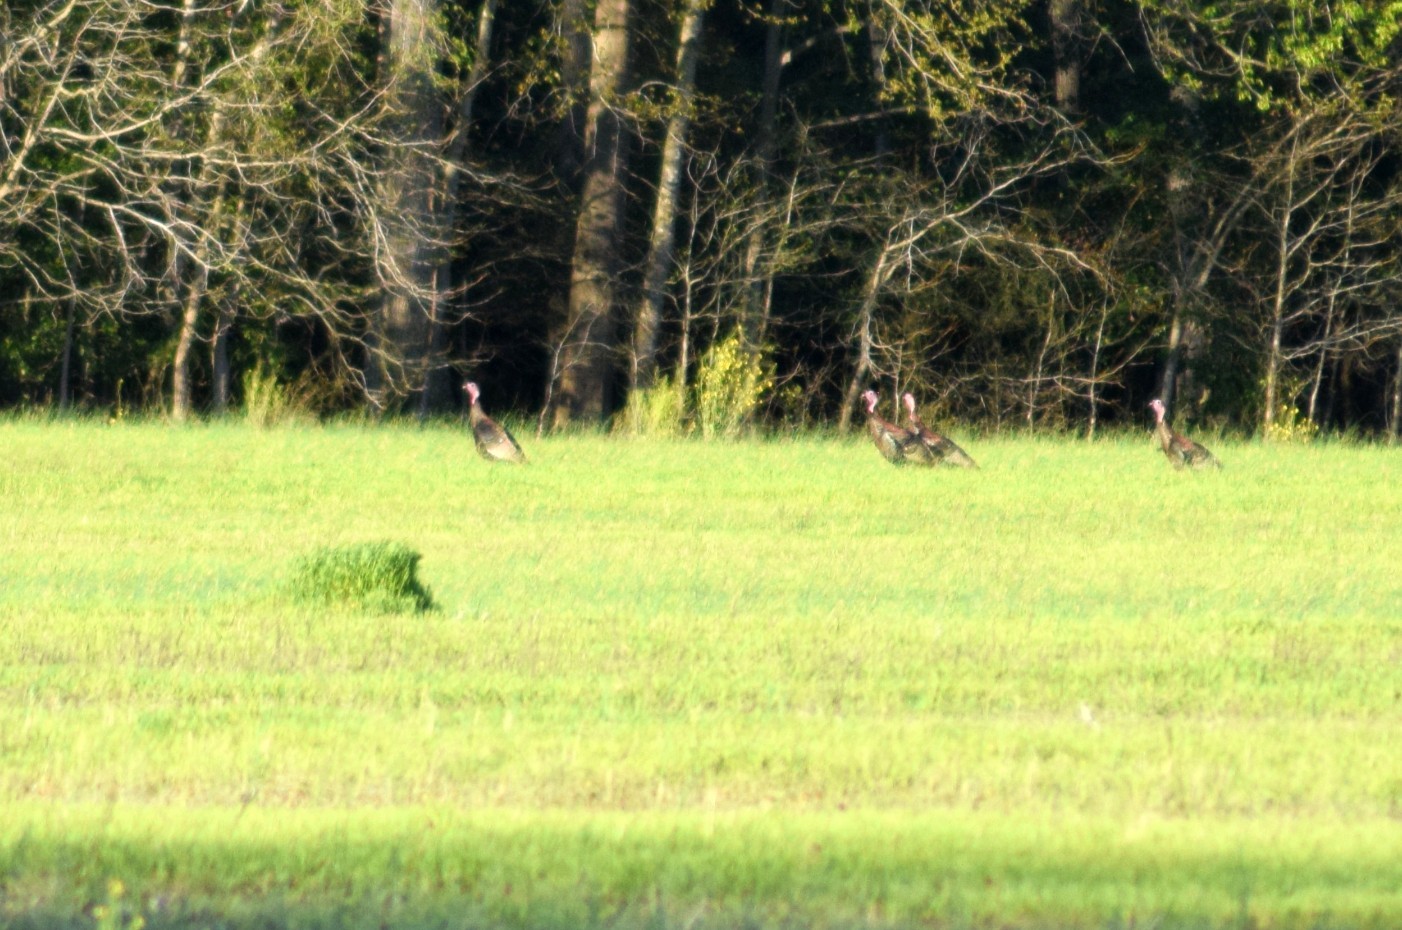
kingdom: Animalia
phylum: Chordata
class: Aves
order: Galliformes
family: Phasianidae
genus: Meleagris
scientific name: Meleagris gallopavo
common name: Wild turkey
